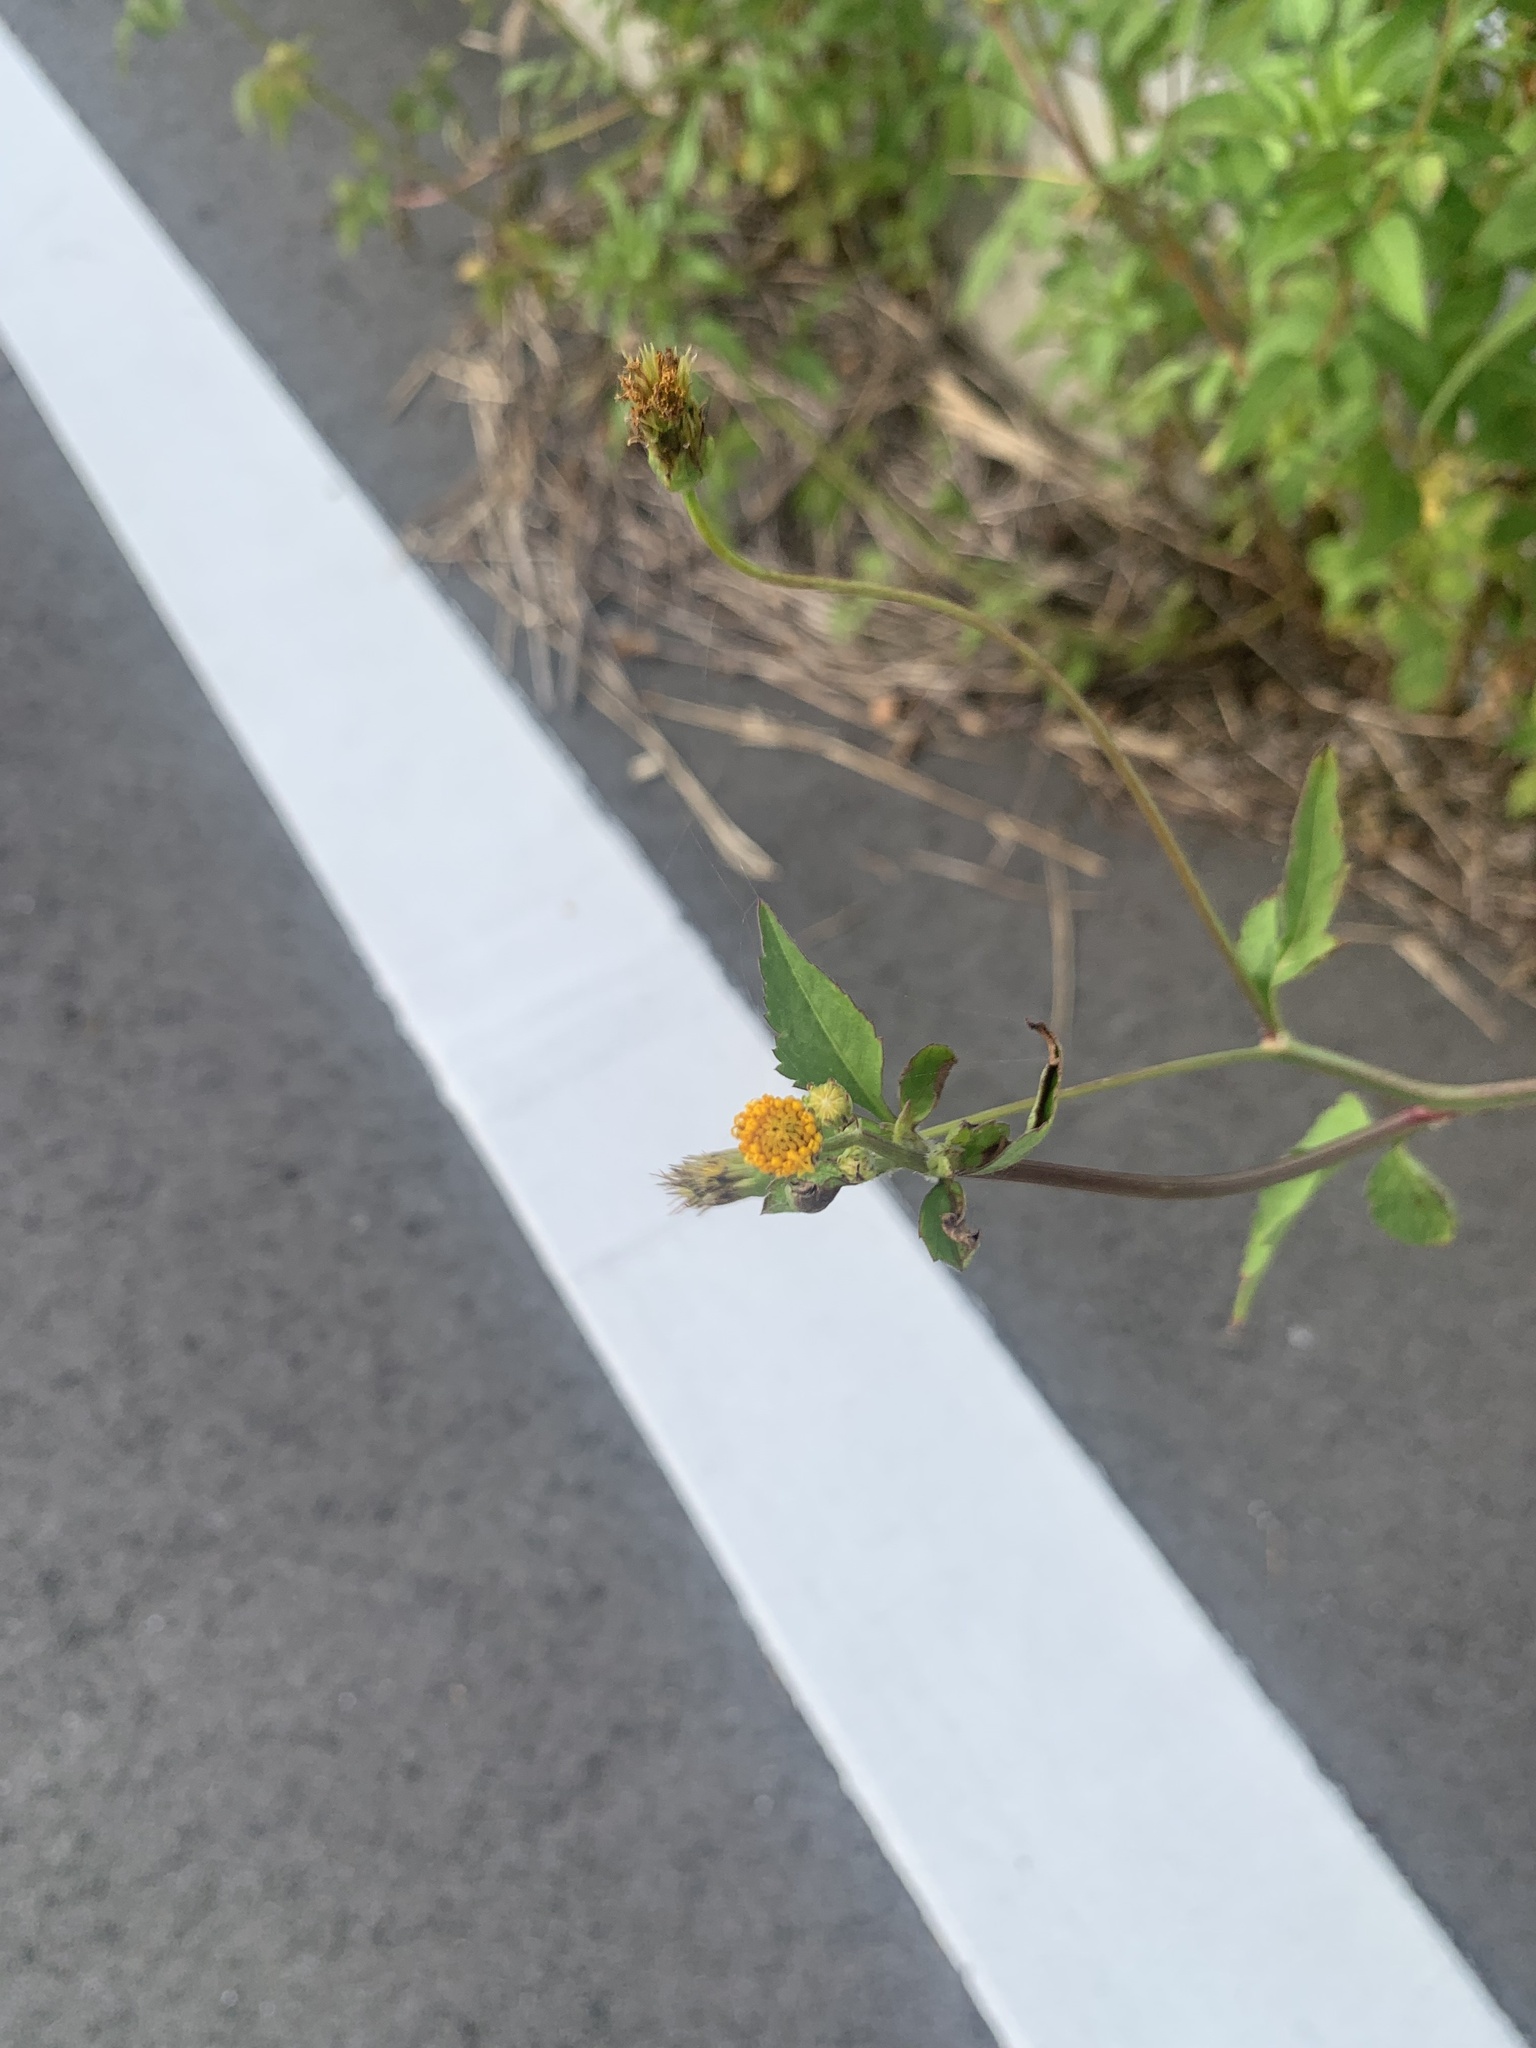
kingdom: Plantae
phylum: Tracheophyta
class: Magnoliopsida
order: Asterales
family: Asteraceae
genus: Bidens
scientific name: Bidens pilosa
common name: Black-jack
